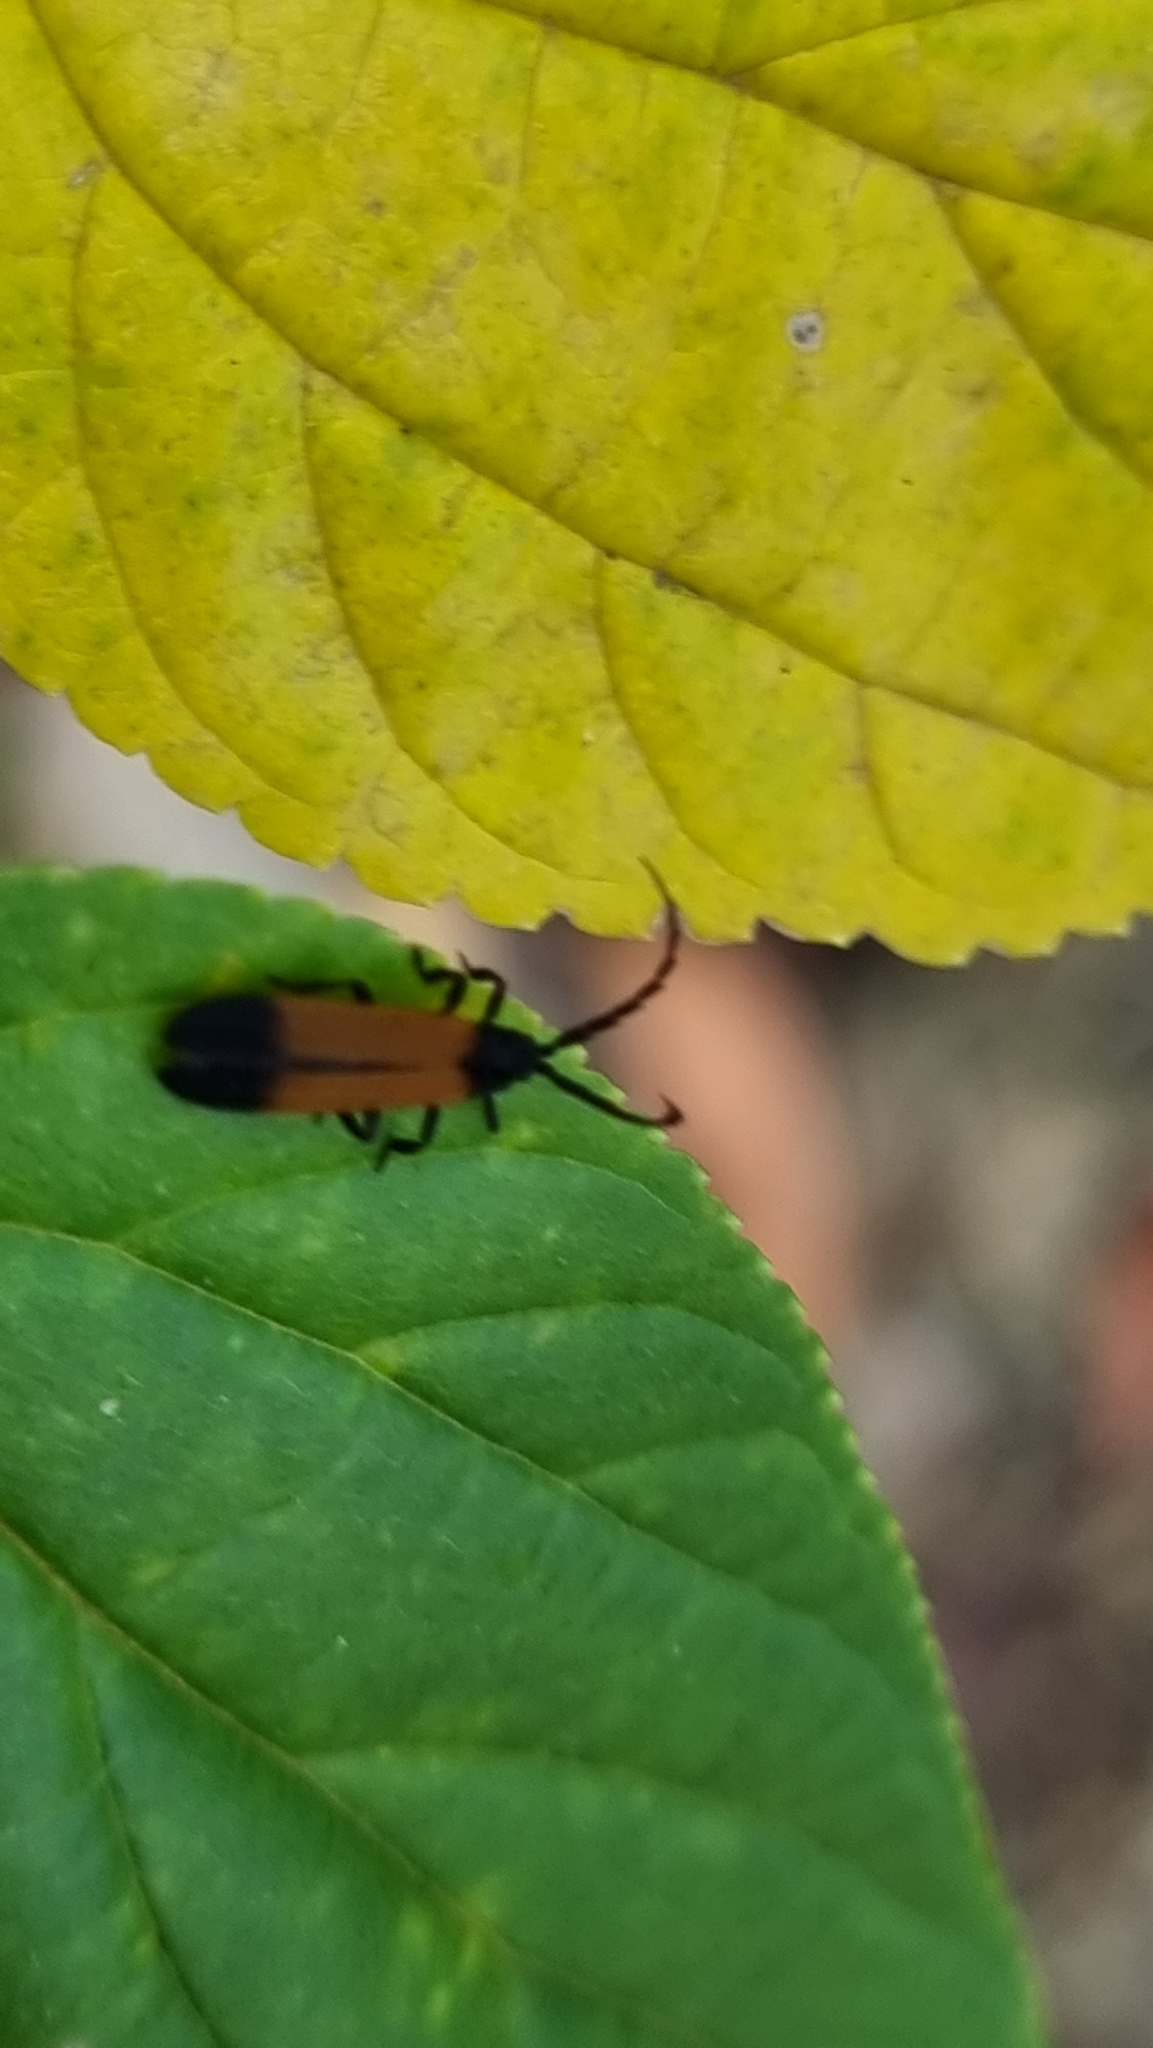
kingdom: Animalia
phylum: Arthropoda
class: Insecta
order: Coleoptera
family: Lycidae
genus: Synchonnus
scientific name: Synchonnus
